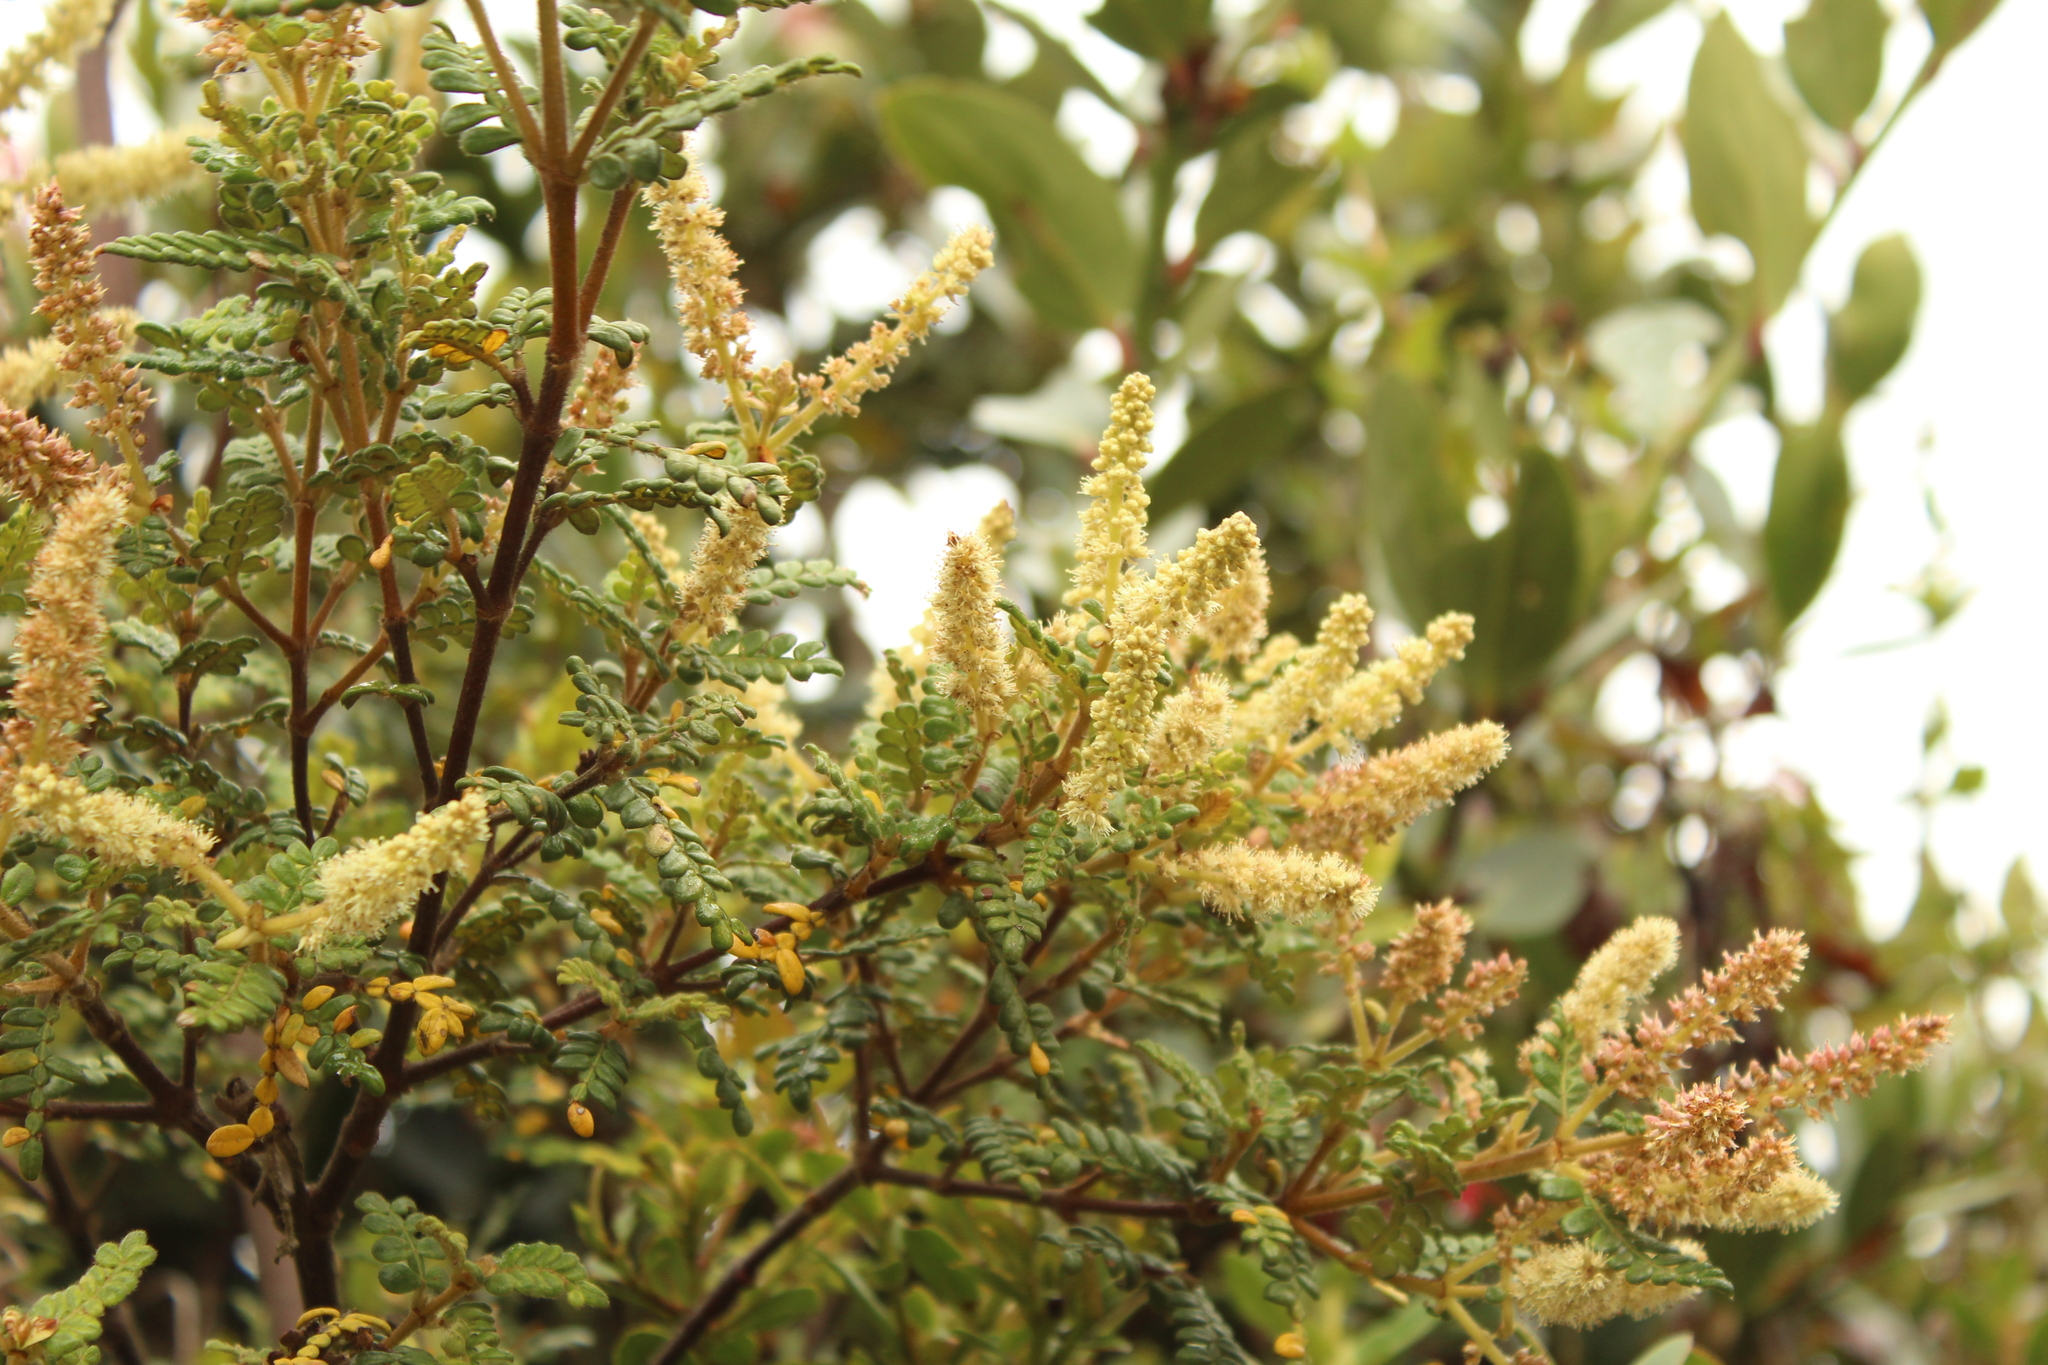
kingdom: Plantae
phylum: Tracheophyta
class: Magnoliopsida
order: Oxalidales
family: Cunoniaceae
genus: Weinmannia
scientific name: Weinmannia tomentosa
